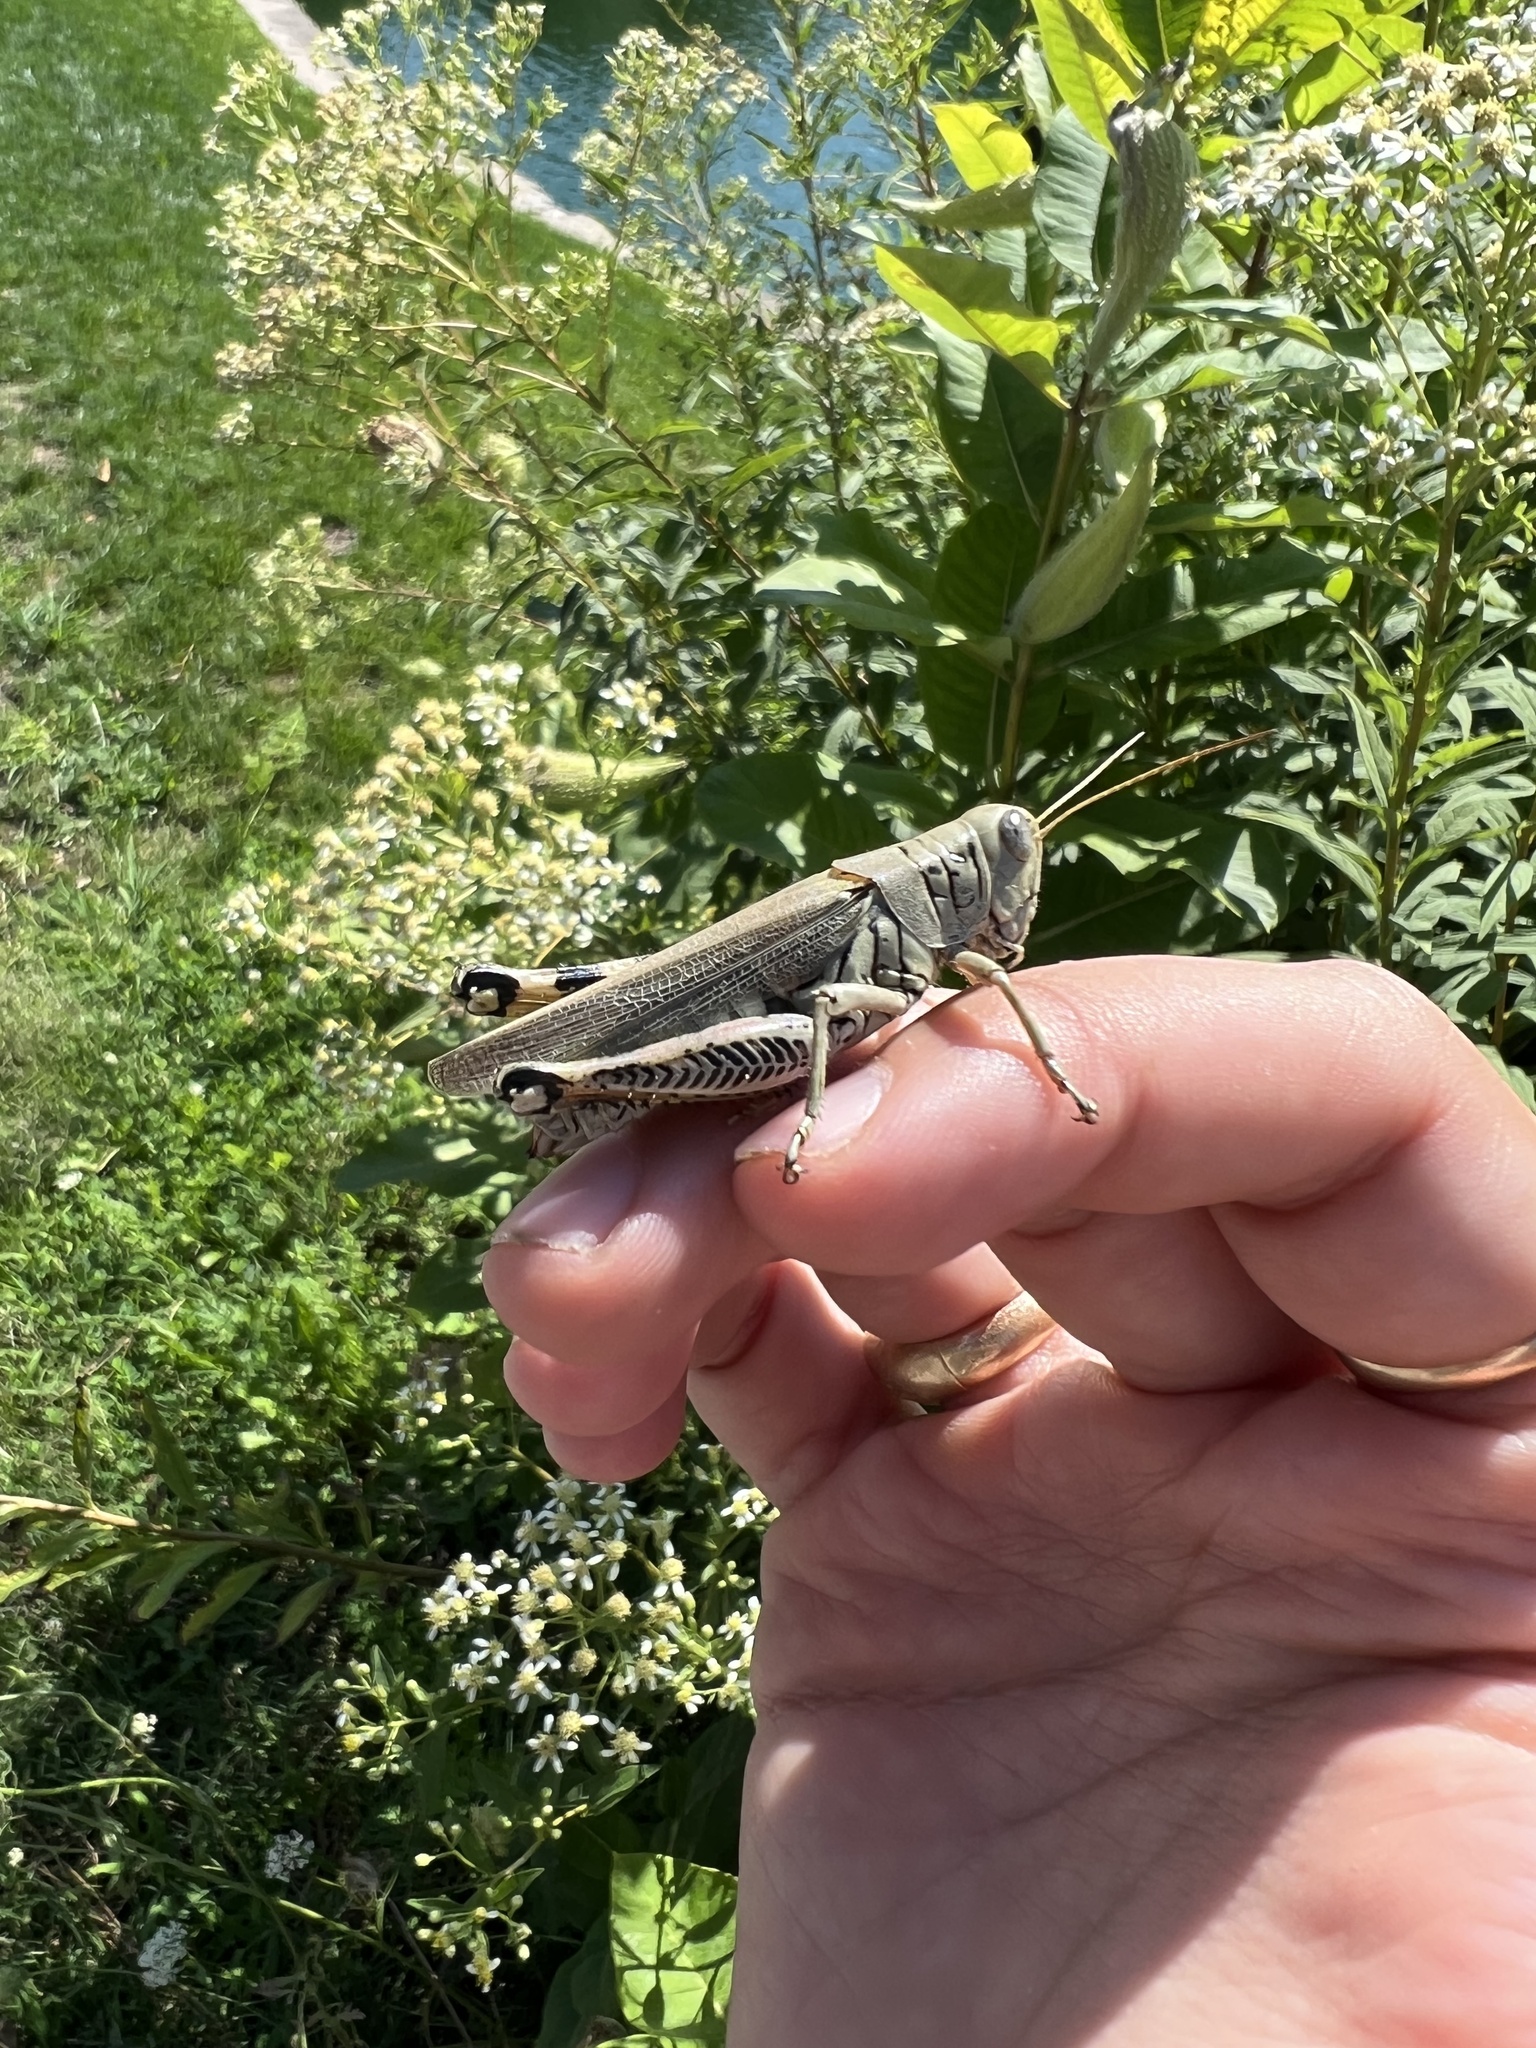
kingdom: Animalia
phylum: Arthropoda
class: Insecta
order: Orthoptera
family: Acrididae
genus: Melanoplus
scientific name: Melanoplus differentialis
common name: Differential grasshopper
